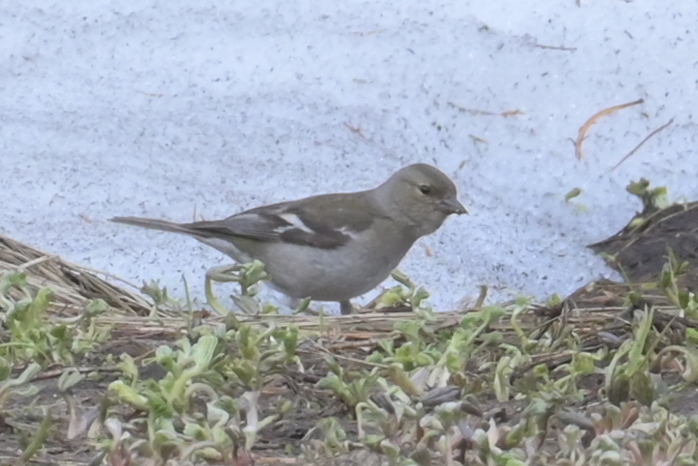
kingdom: Animalia
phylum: Chordata
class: Aves
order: Passeriformes
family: Fringillidae
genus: Fringilla
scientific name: Fringilla coelebs
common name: Common chaffinch
